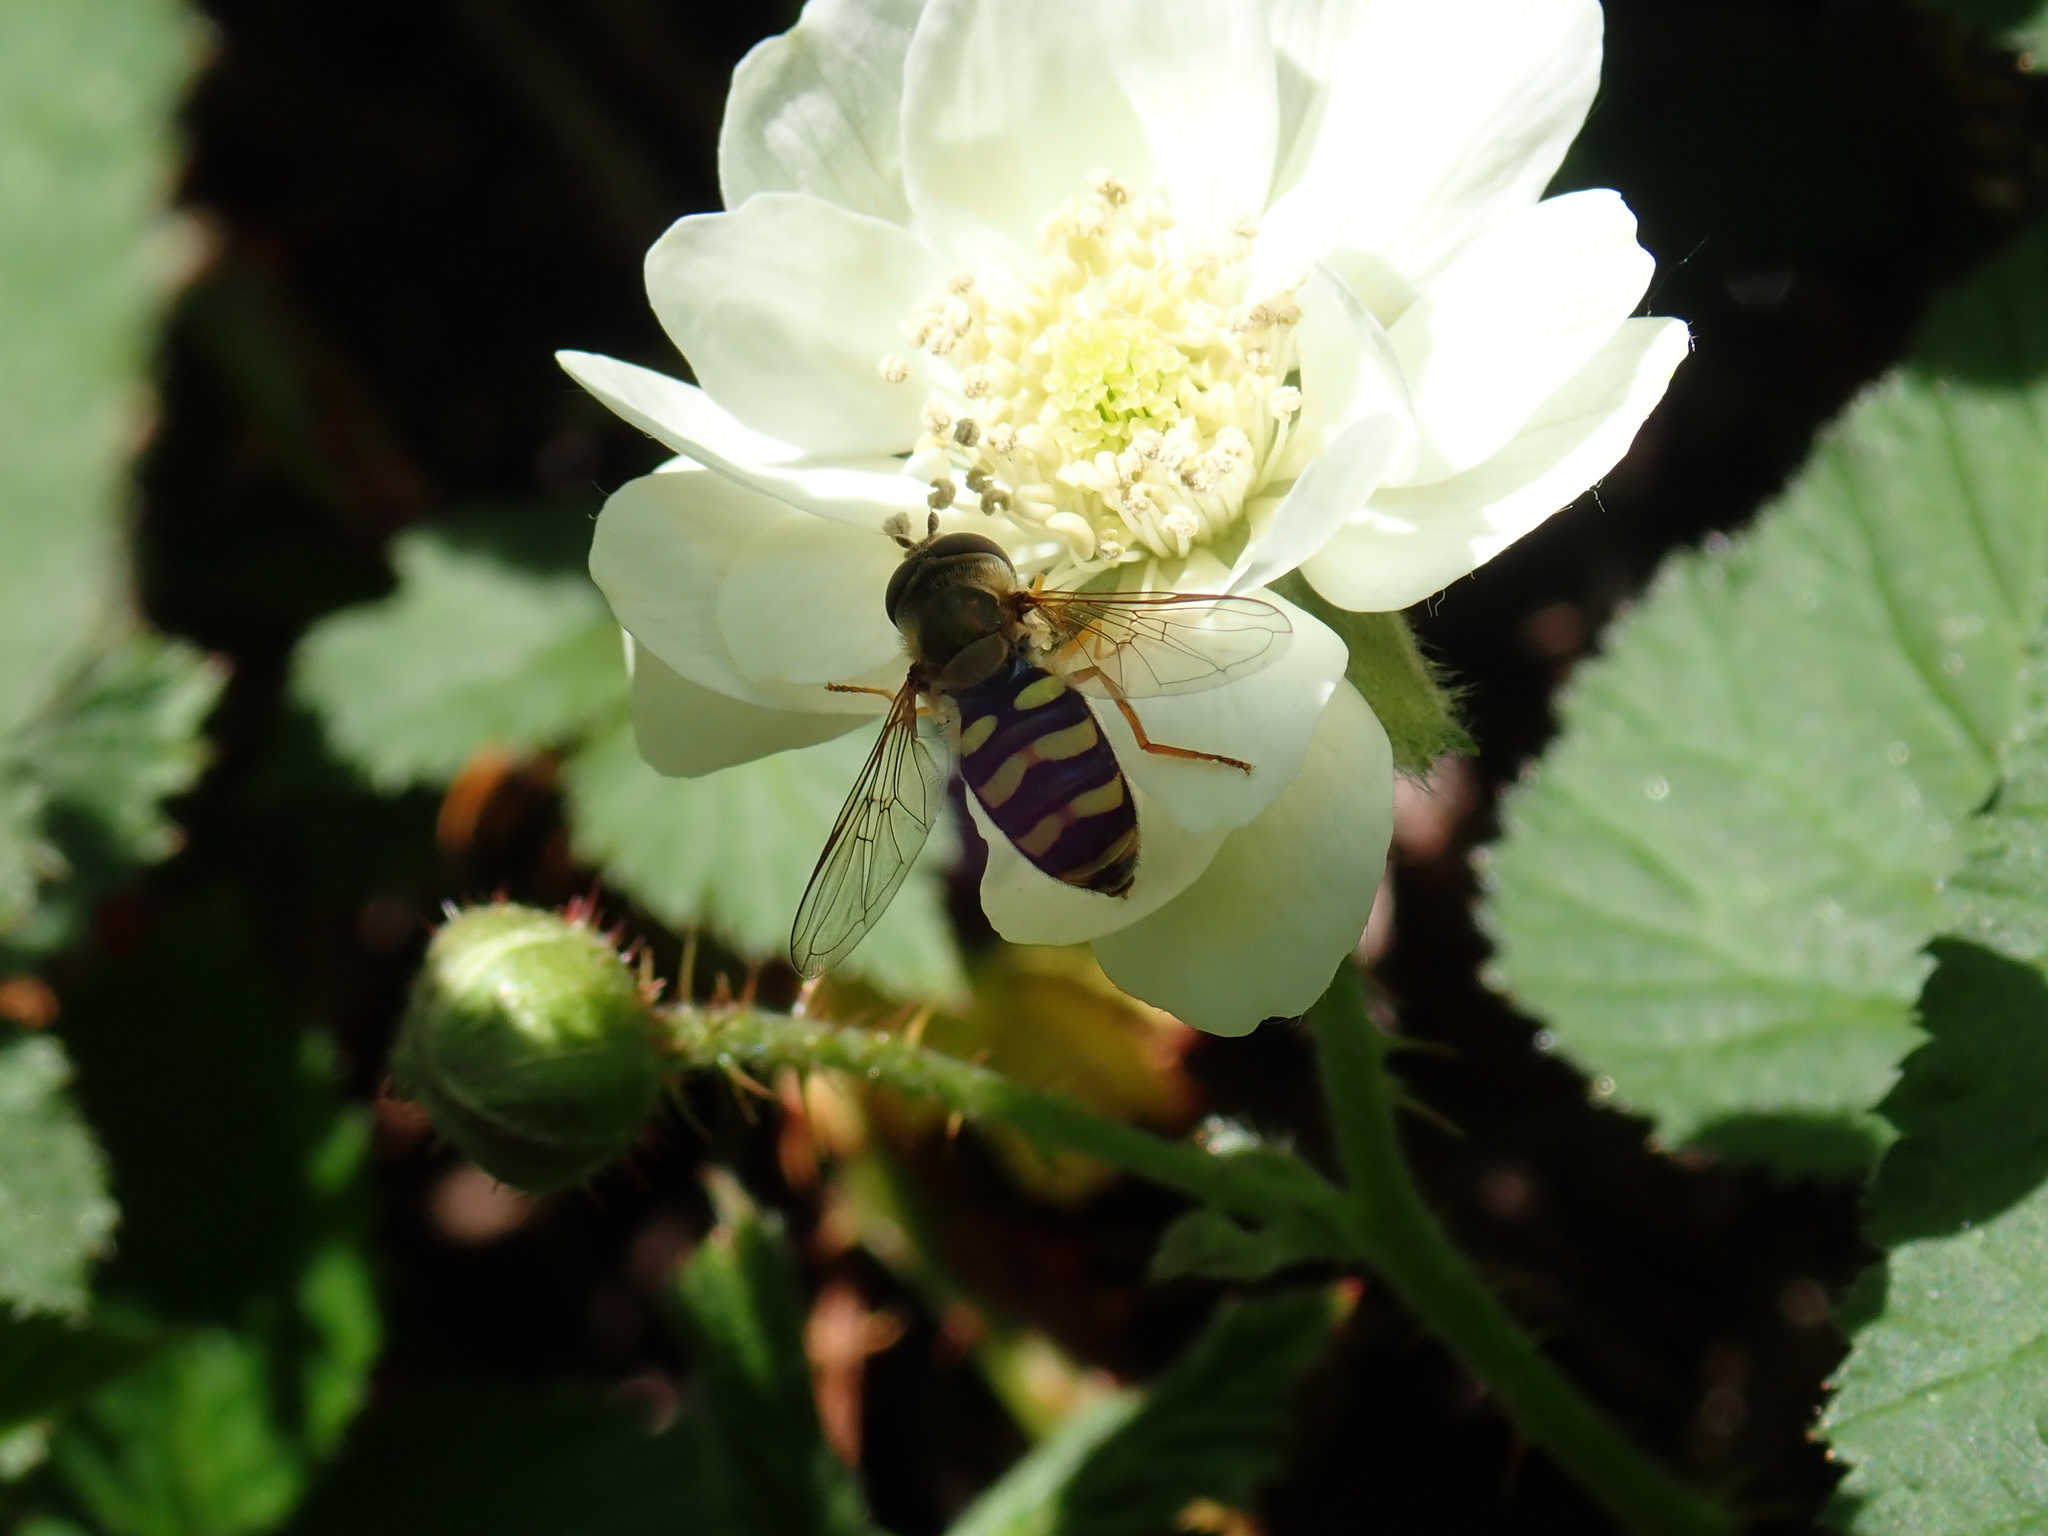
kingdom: Animalia
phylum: Arthropoda
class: Insecta
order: Diptera
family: Syrphidae
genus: Eupeodes
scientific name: Eupeodes fumipennis
